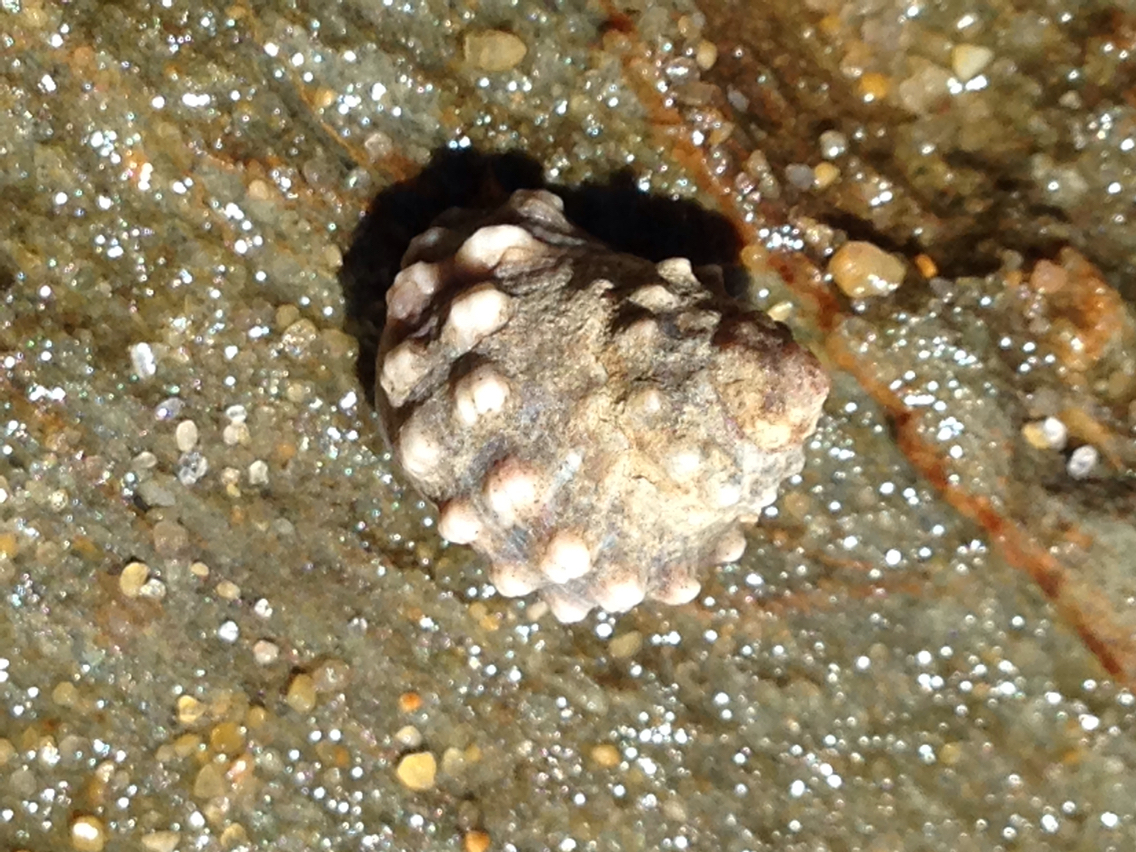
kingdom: Animalia
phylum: Mollusca
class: Gastropoda
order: Littorinimorpha
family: Littorinidae
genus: Nodilittorina
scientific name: Nodilittorina pyramidalis
